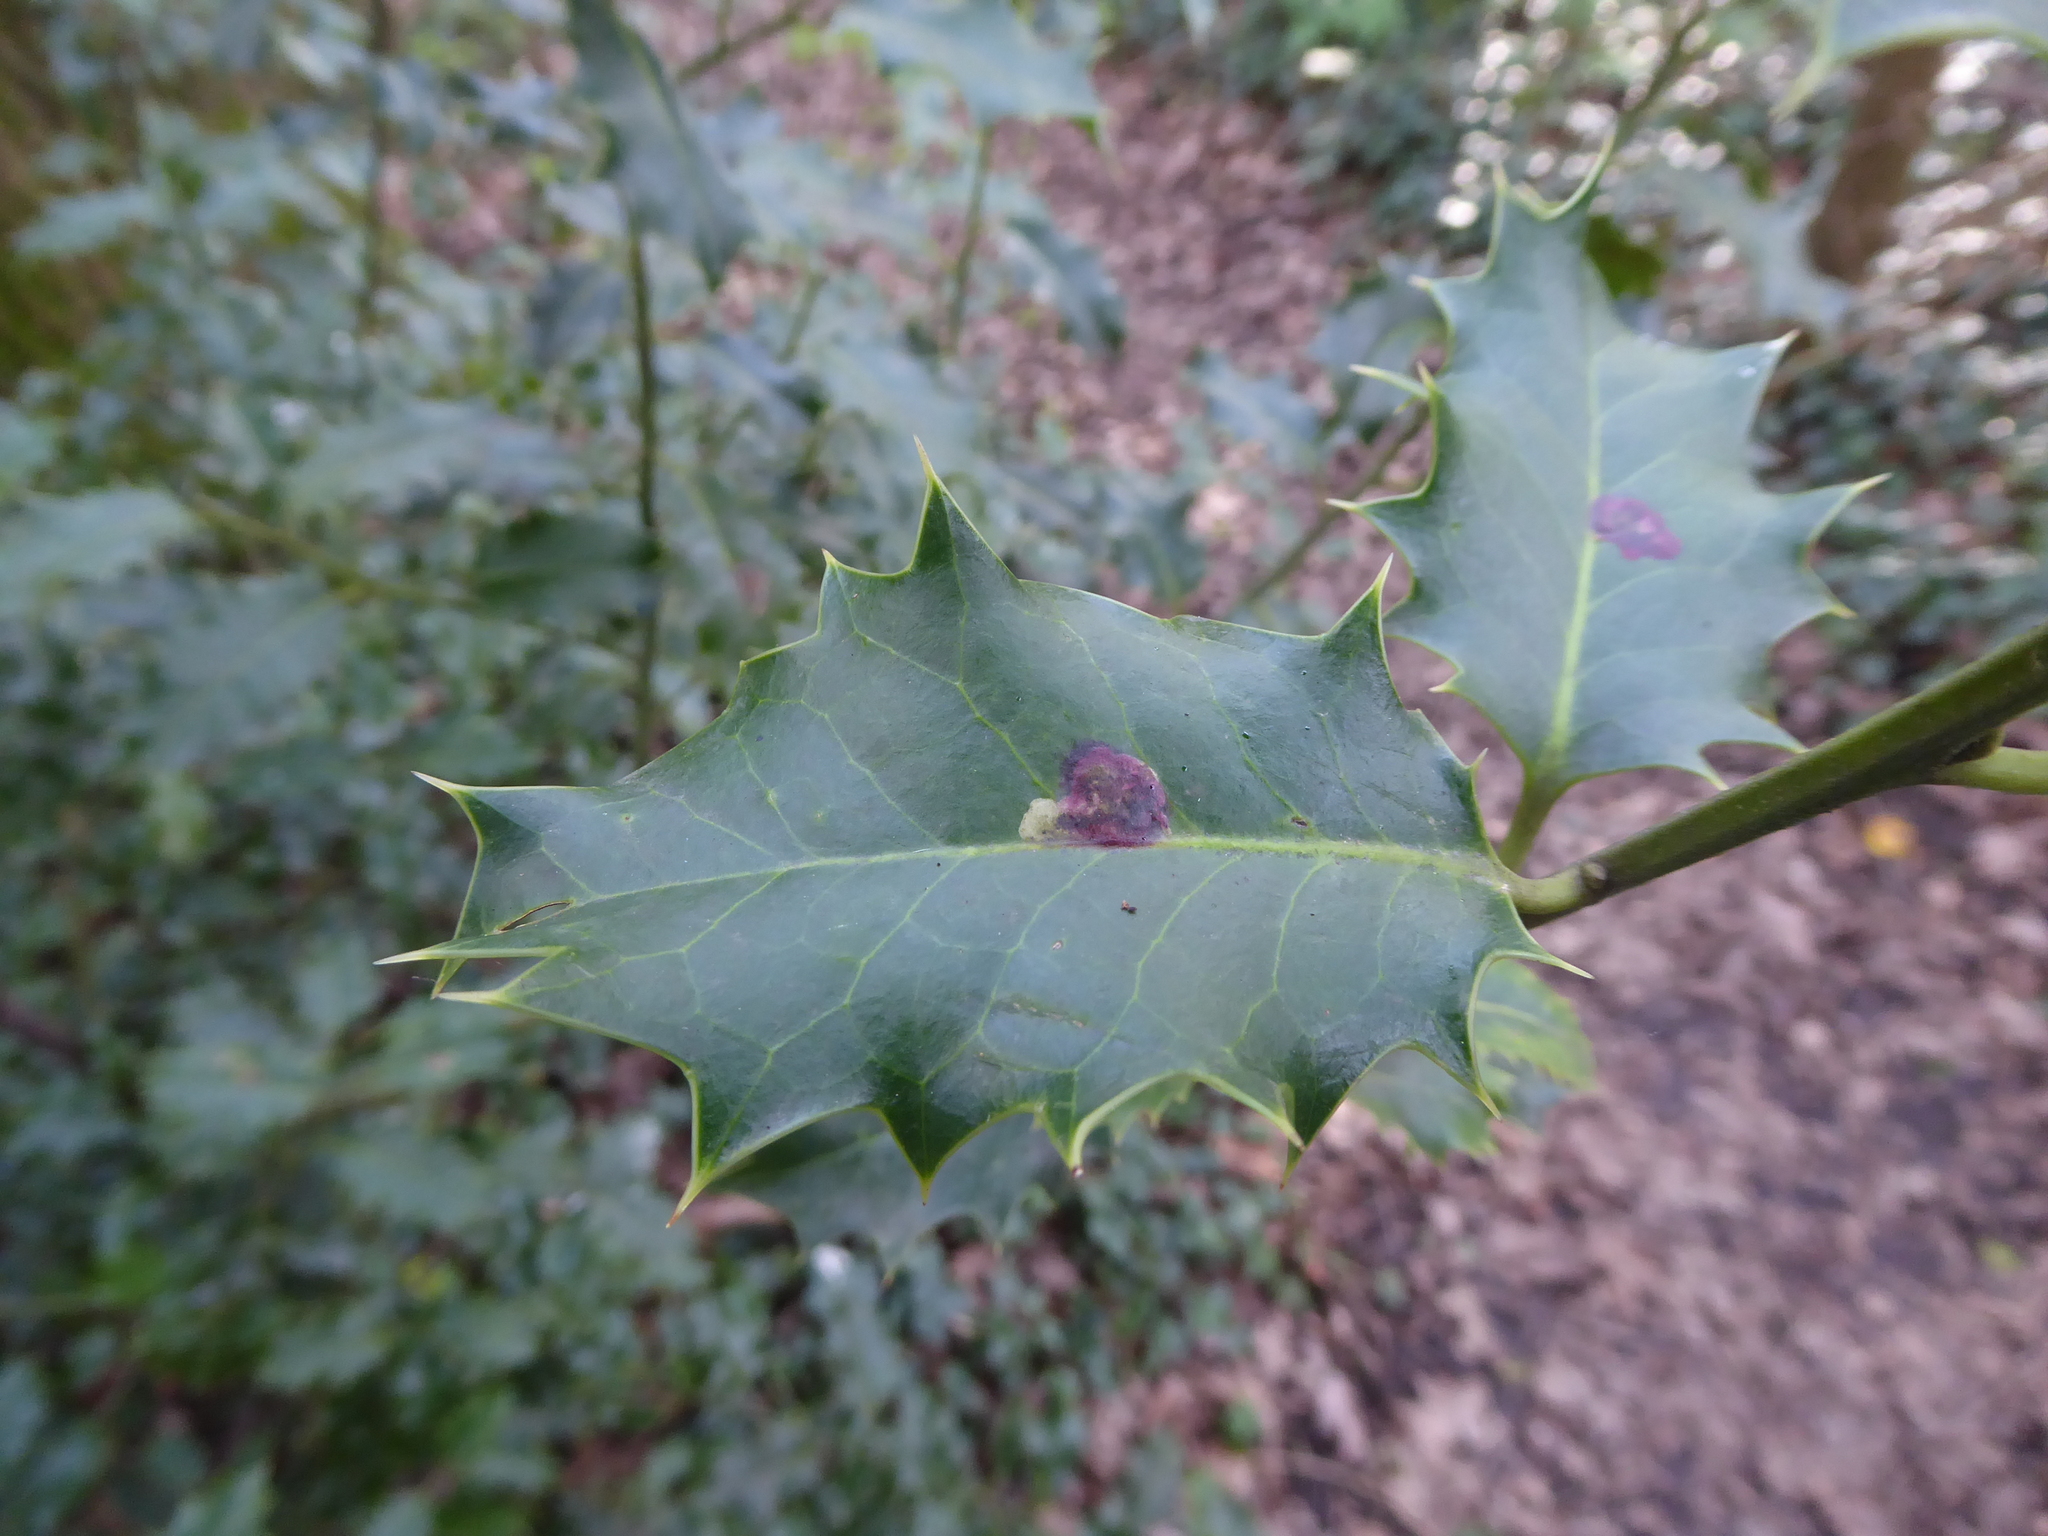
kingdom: Animalia
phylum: Arthropoda
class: Insecta
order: Diptera
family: Agromyzidae
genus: Phytomyza
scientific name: Phytomyza ilicis
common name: Holly leafminer
